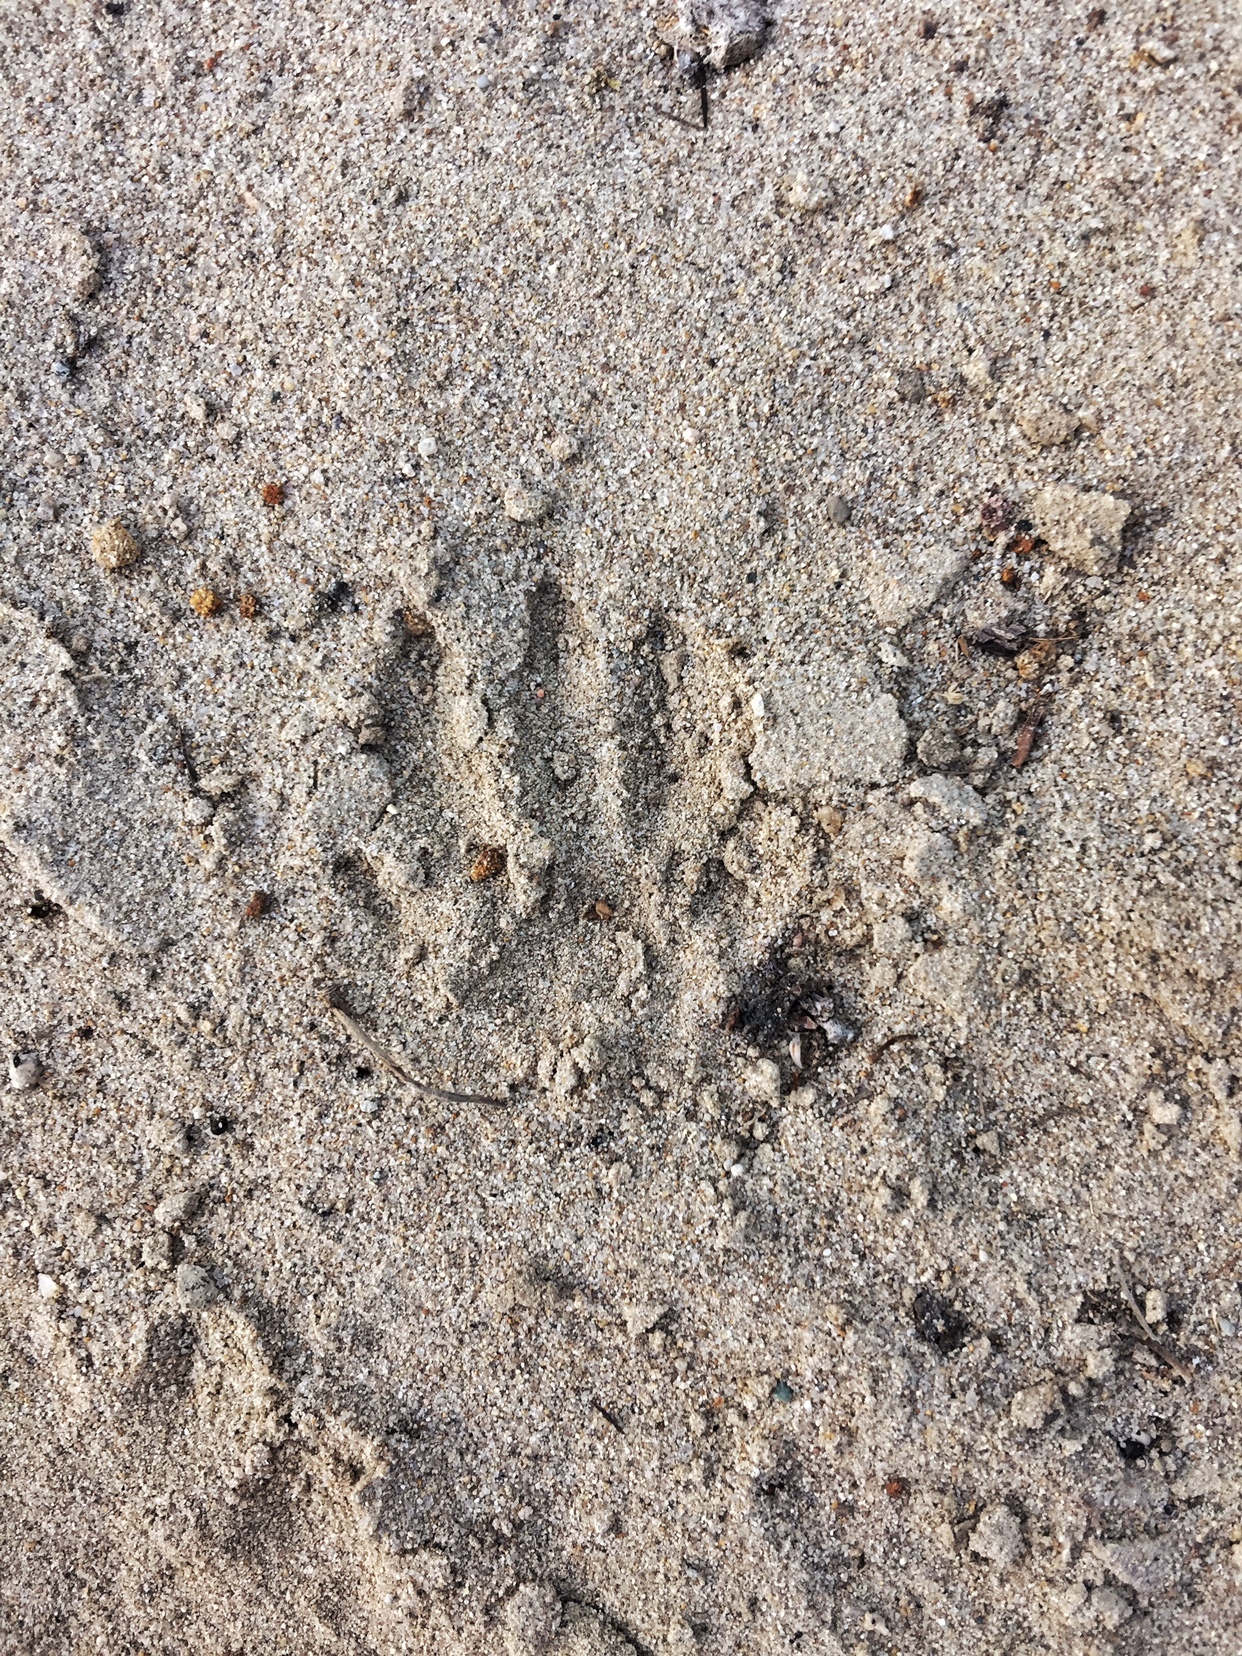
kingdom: Animalia
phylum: Chordata
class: Mammalia
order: Carnivora
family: Procyonidae
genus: Procyon
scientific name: Procyon lotor
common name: Raccoon
